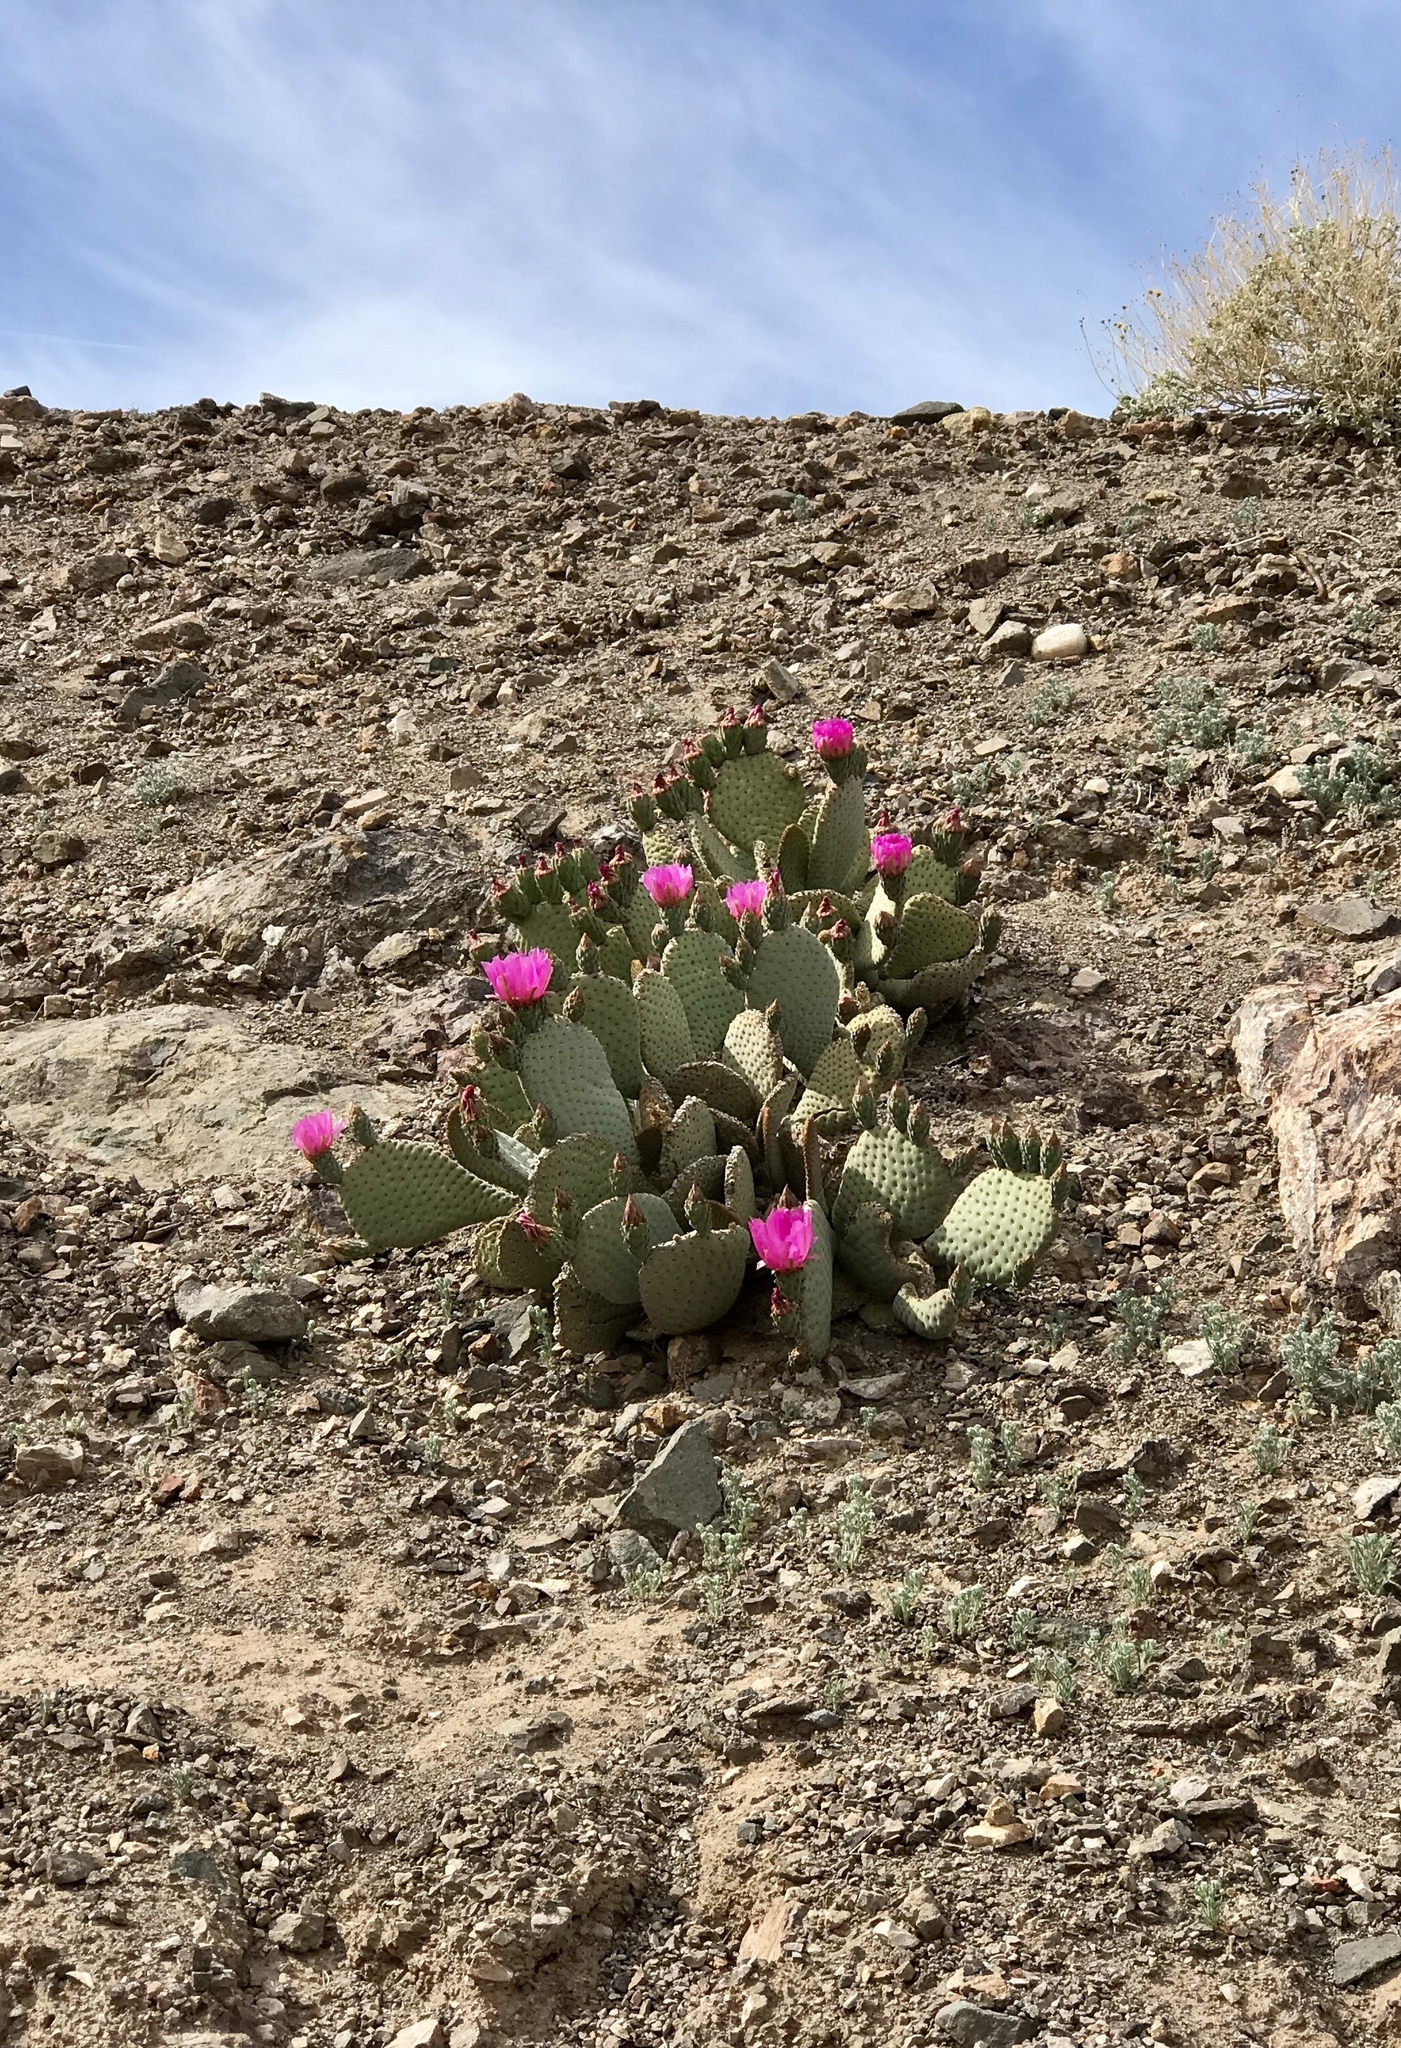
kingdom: Plantae
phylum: Tracheophyta
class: Magnoliopsida
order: Caryophyllales
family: Cactaceae
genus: Opuntia
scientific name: Opuntia basilaris
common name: Beavertail prickly-pear
